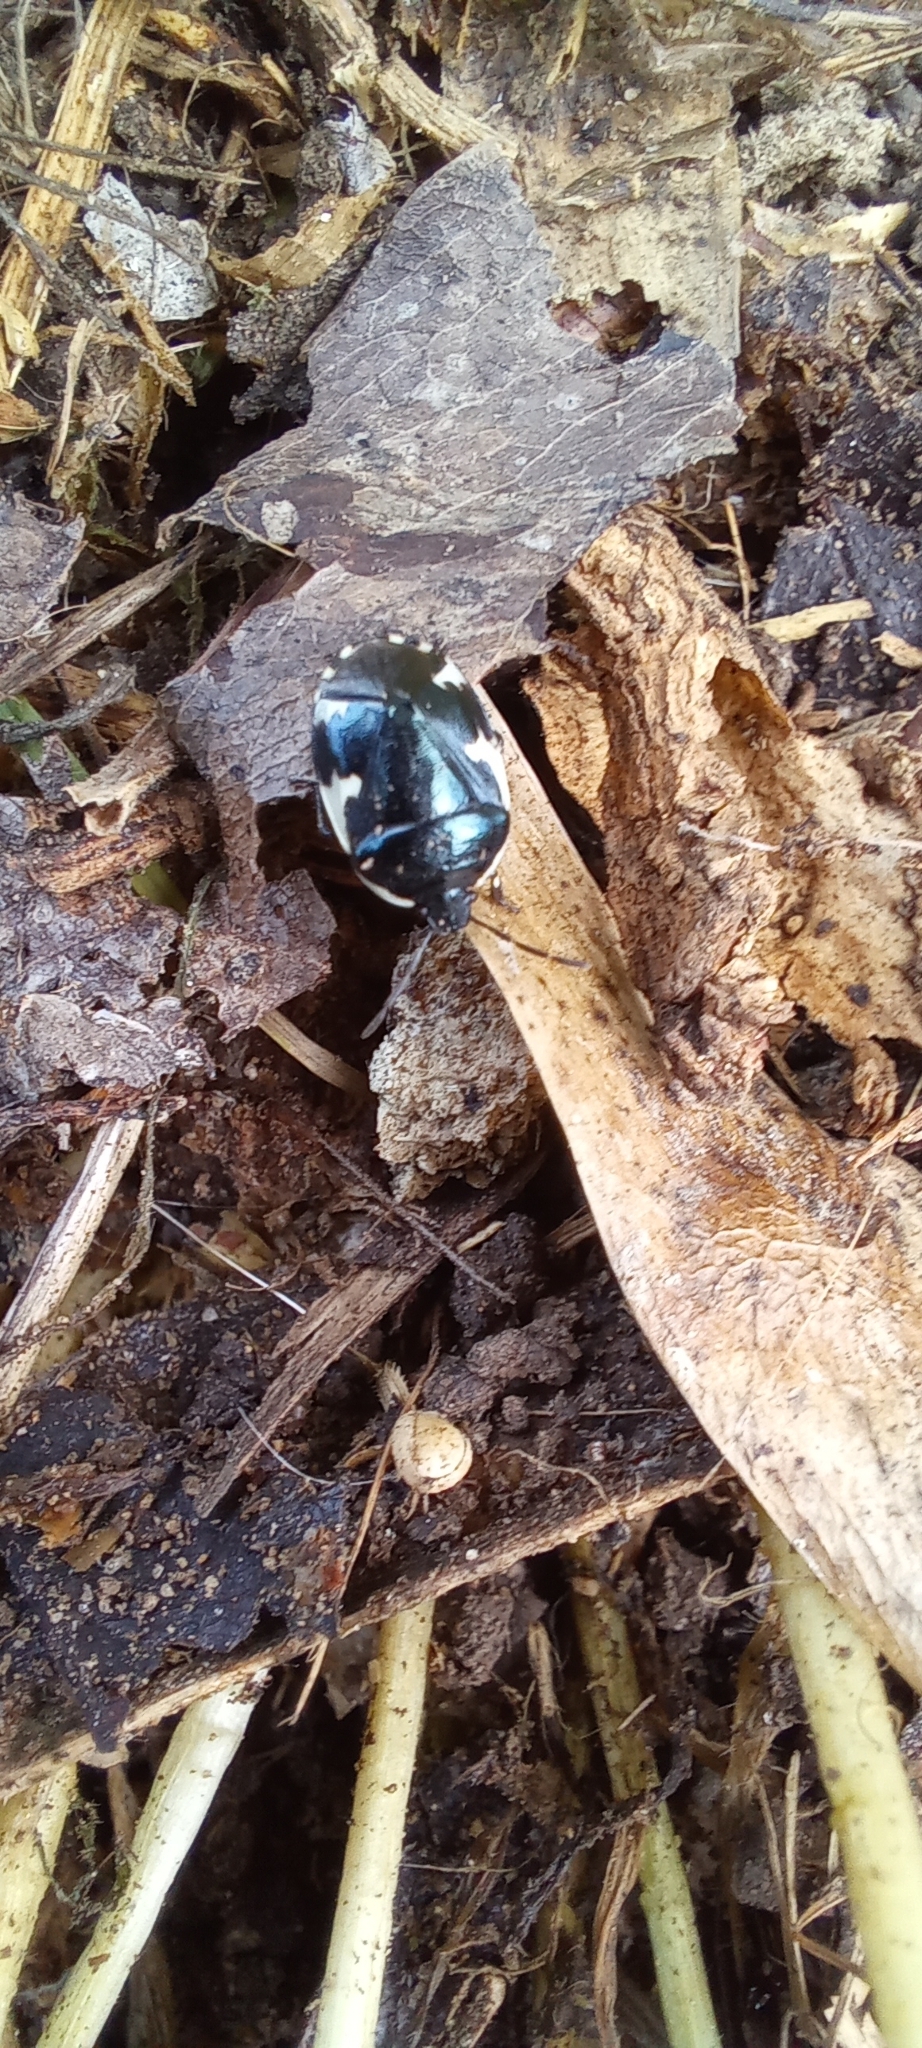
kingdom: Animalia
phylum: Arthropoda
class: Insecta
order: Hemiptera
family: Cydnidae
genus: Tritomegas
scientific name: Tritomegas sexmaculatus
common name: Rambur's pied shieldbug
